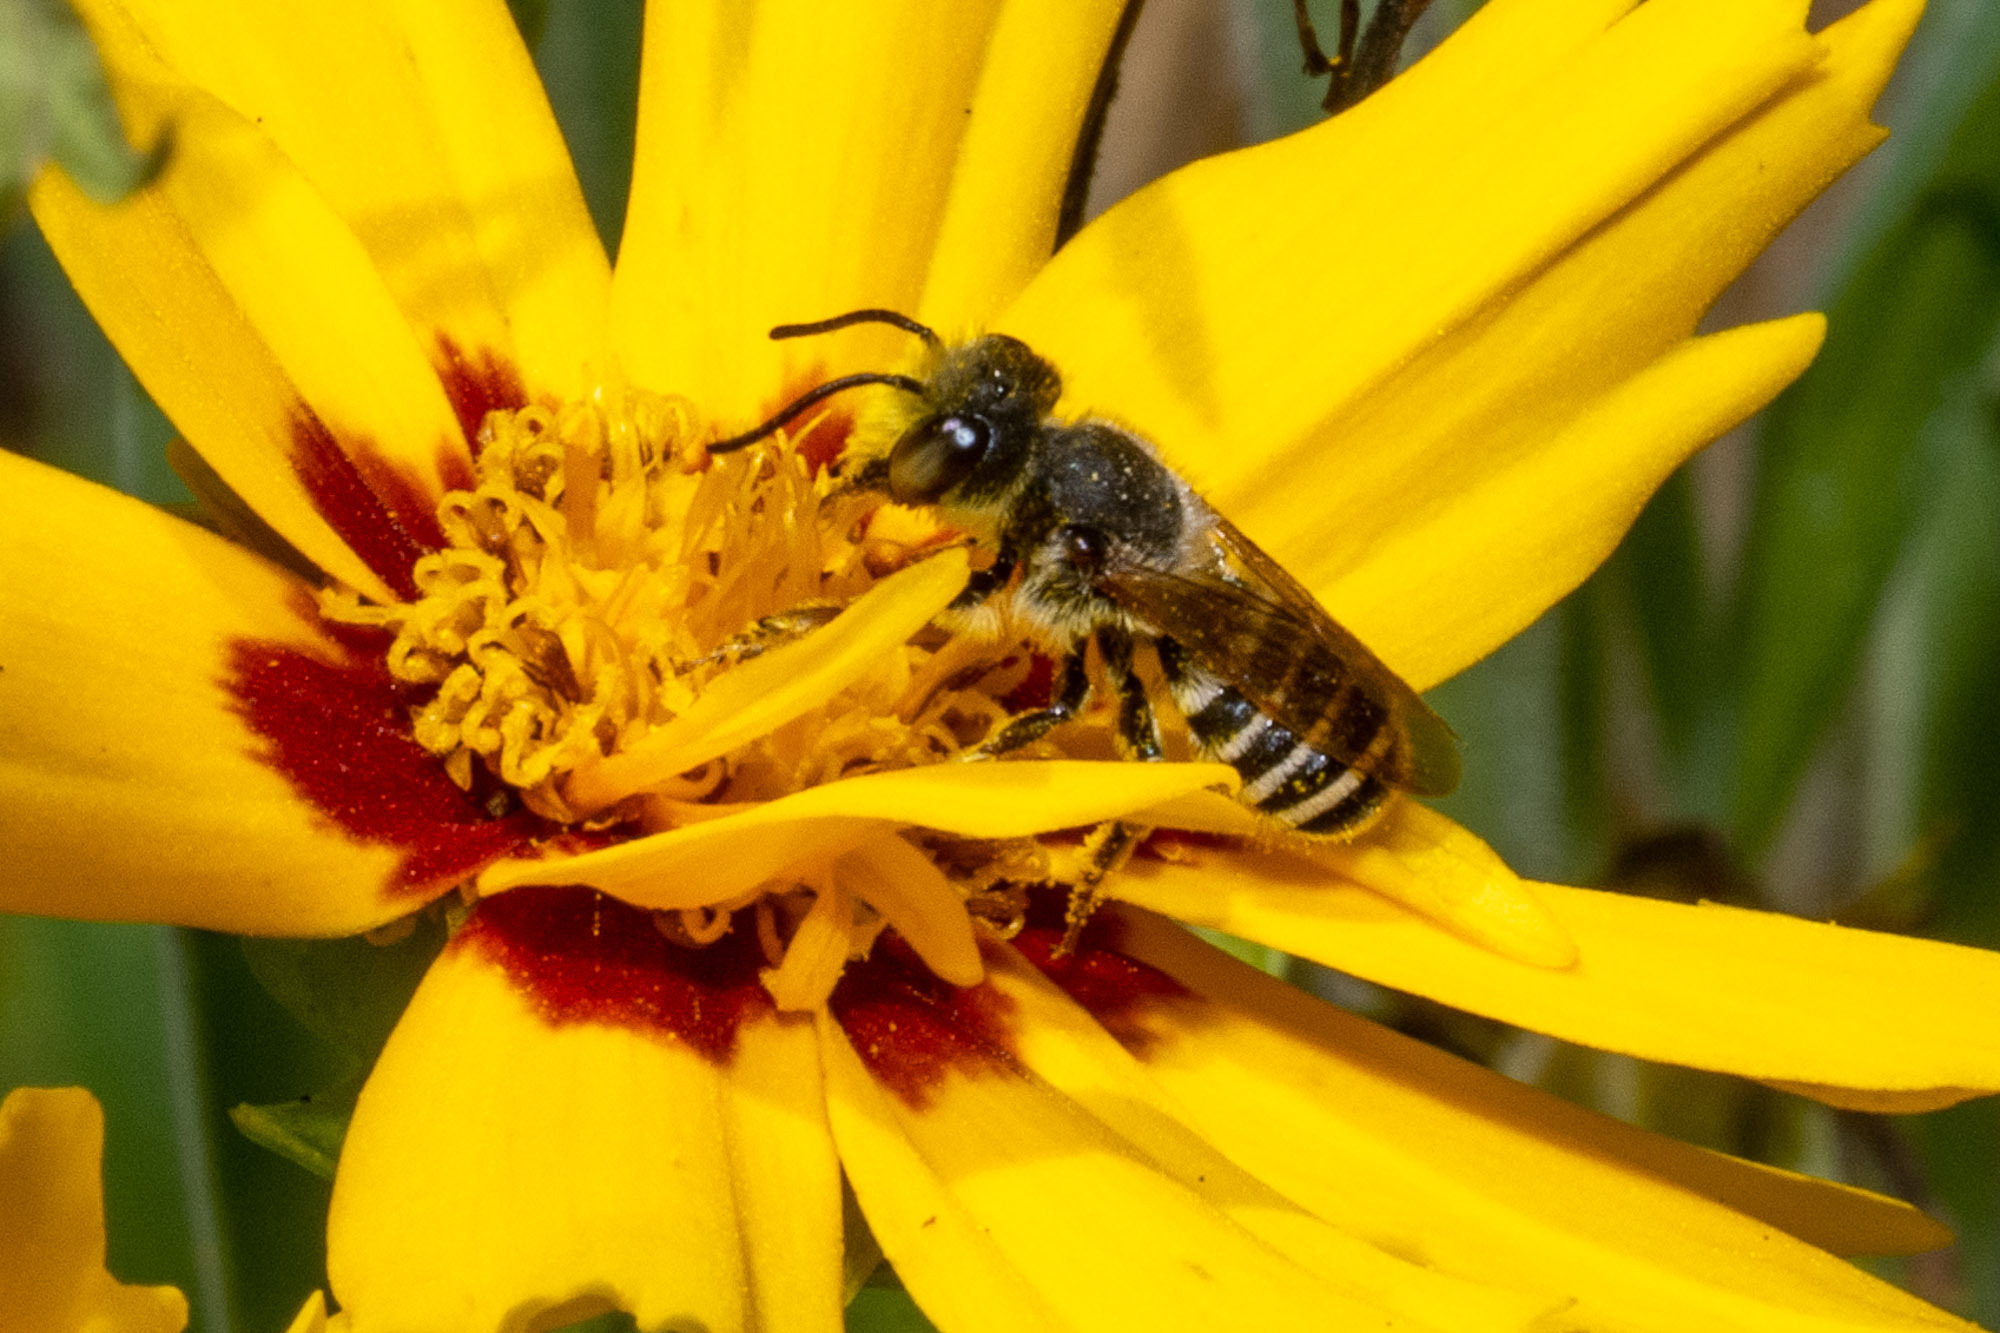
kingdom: Animalia
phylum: Arthropoda
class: Insecta
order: Hymenoptera
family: Megachilidae
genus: Megachile
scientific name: Megachile fidelis
